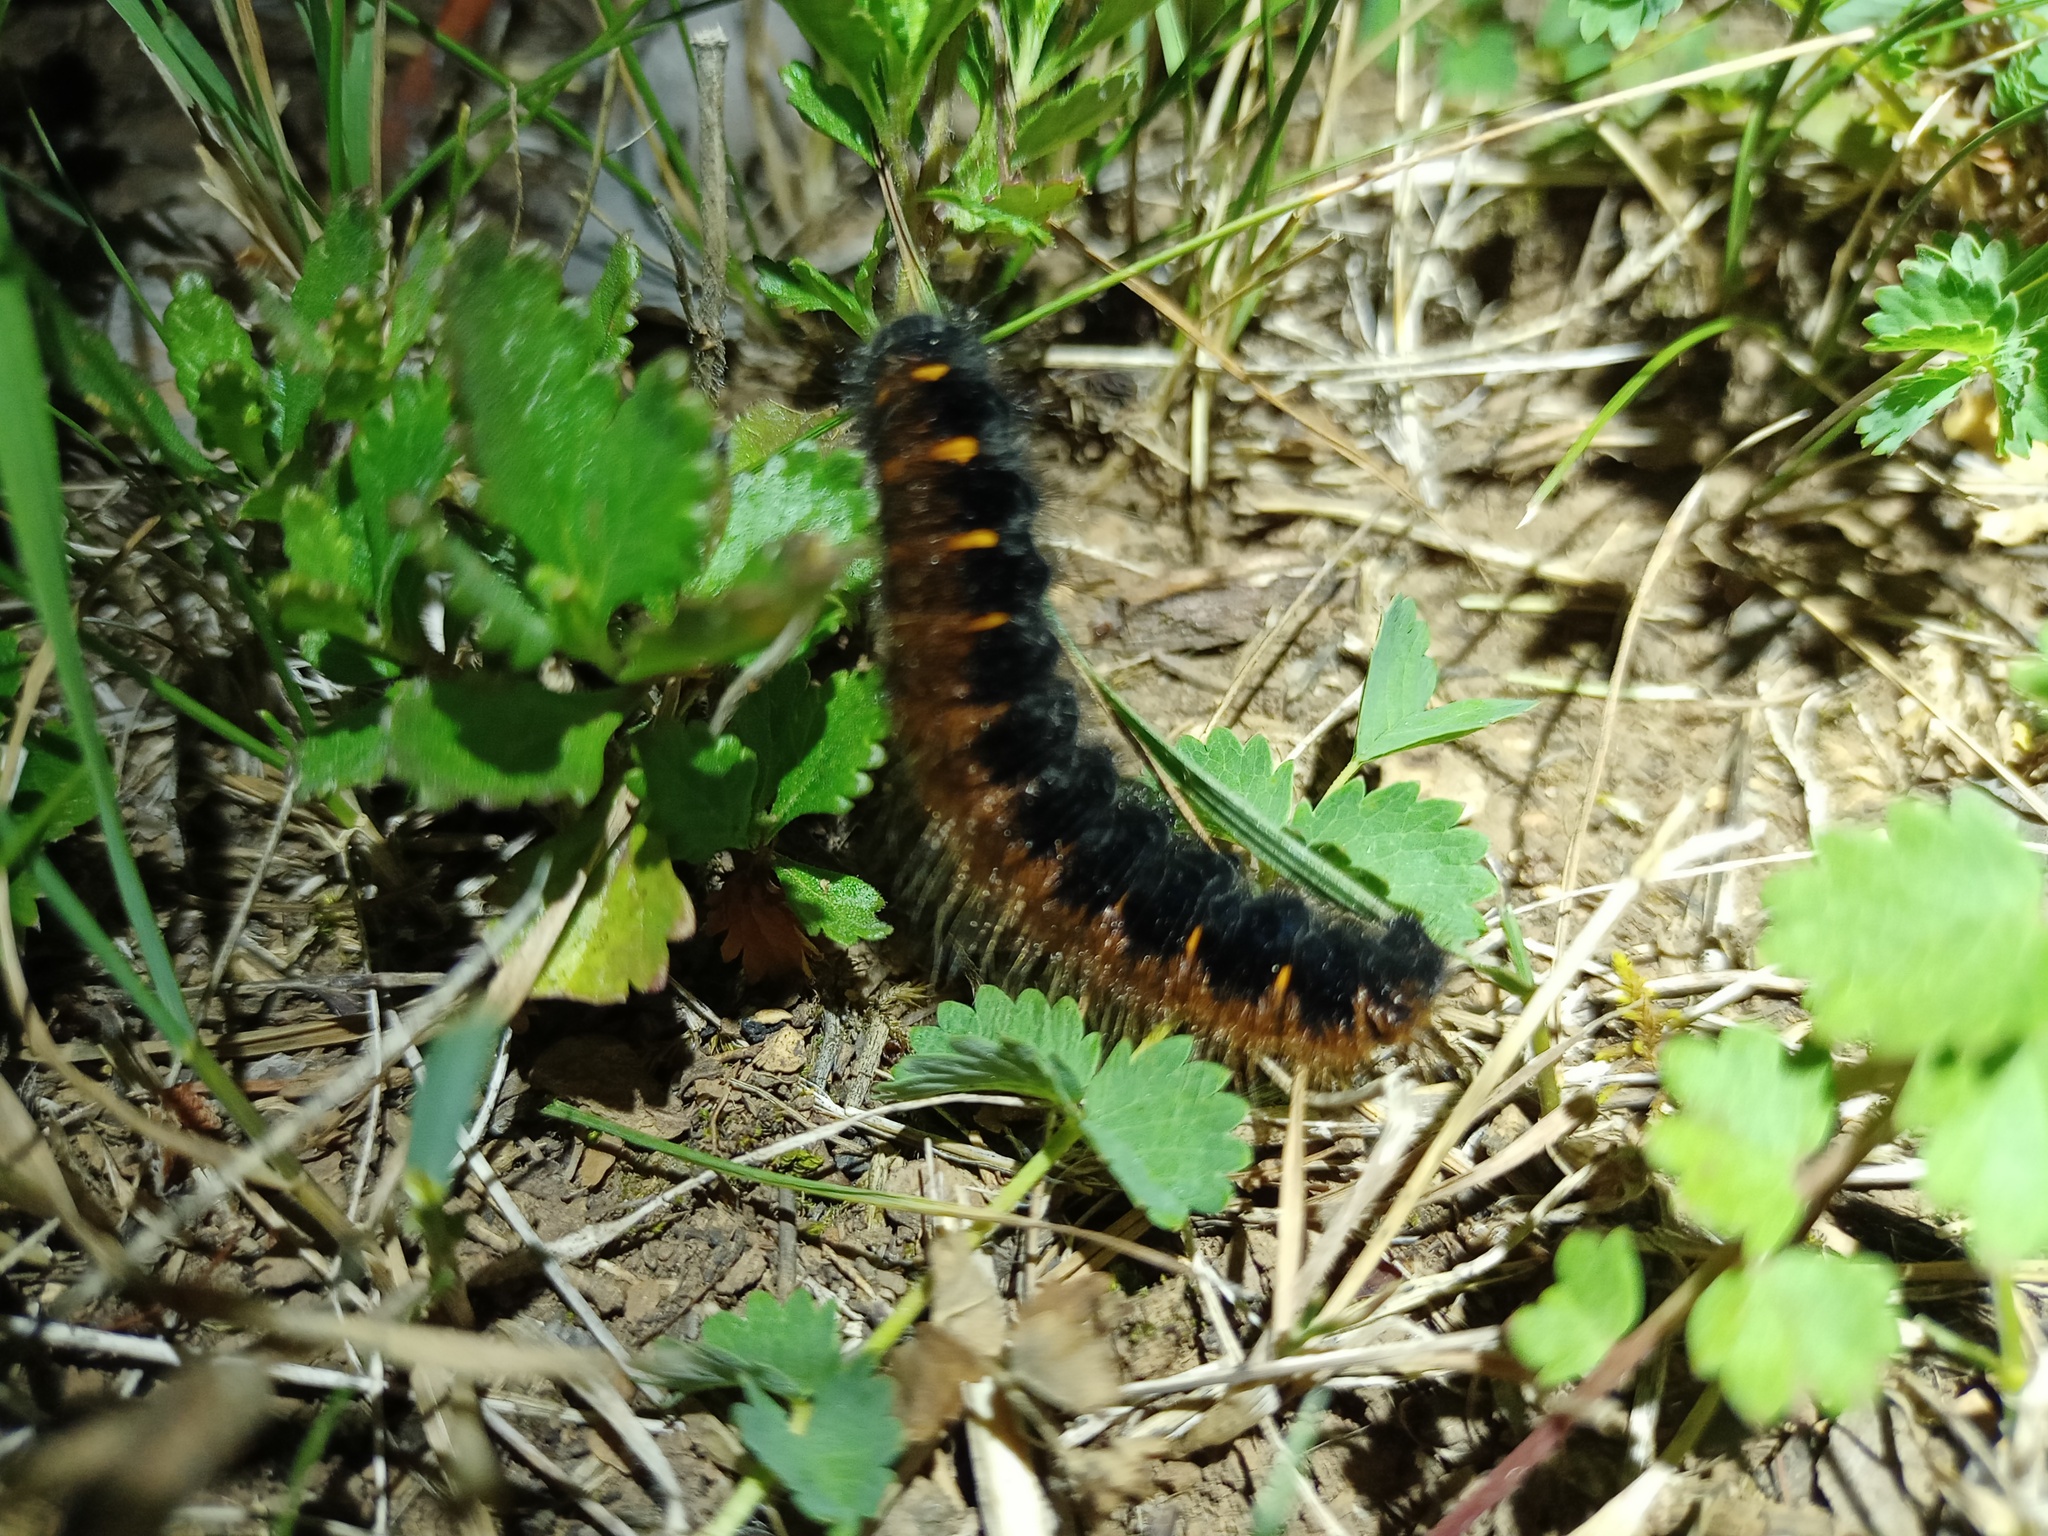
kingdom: Animalia
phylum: Arthropoda
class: Insecta
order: Lepidoptera
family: Lasiocampidae
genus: Macrothylacia
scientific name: Macrothylacia rubi
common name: Fox moth
